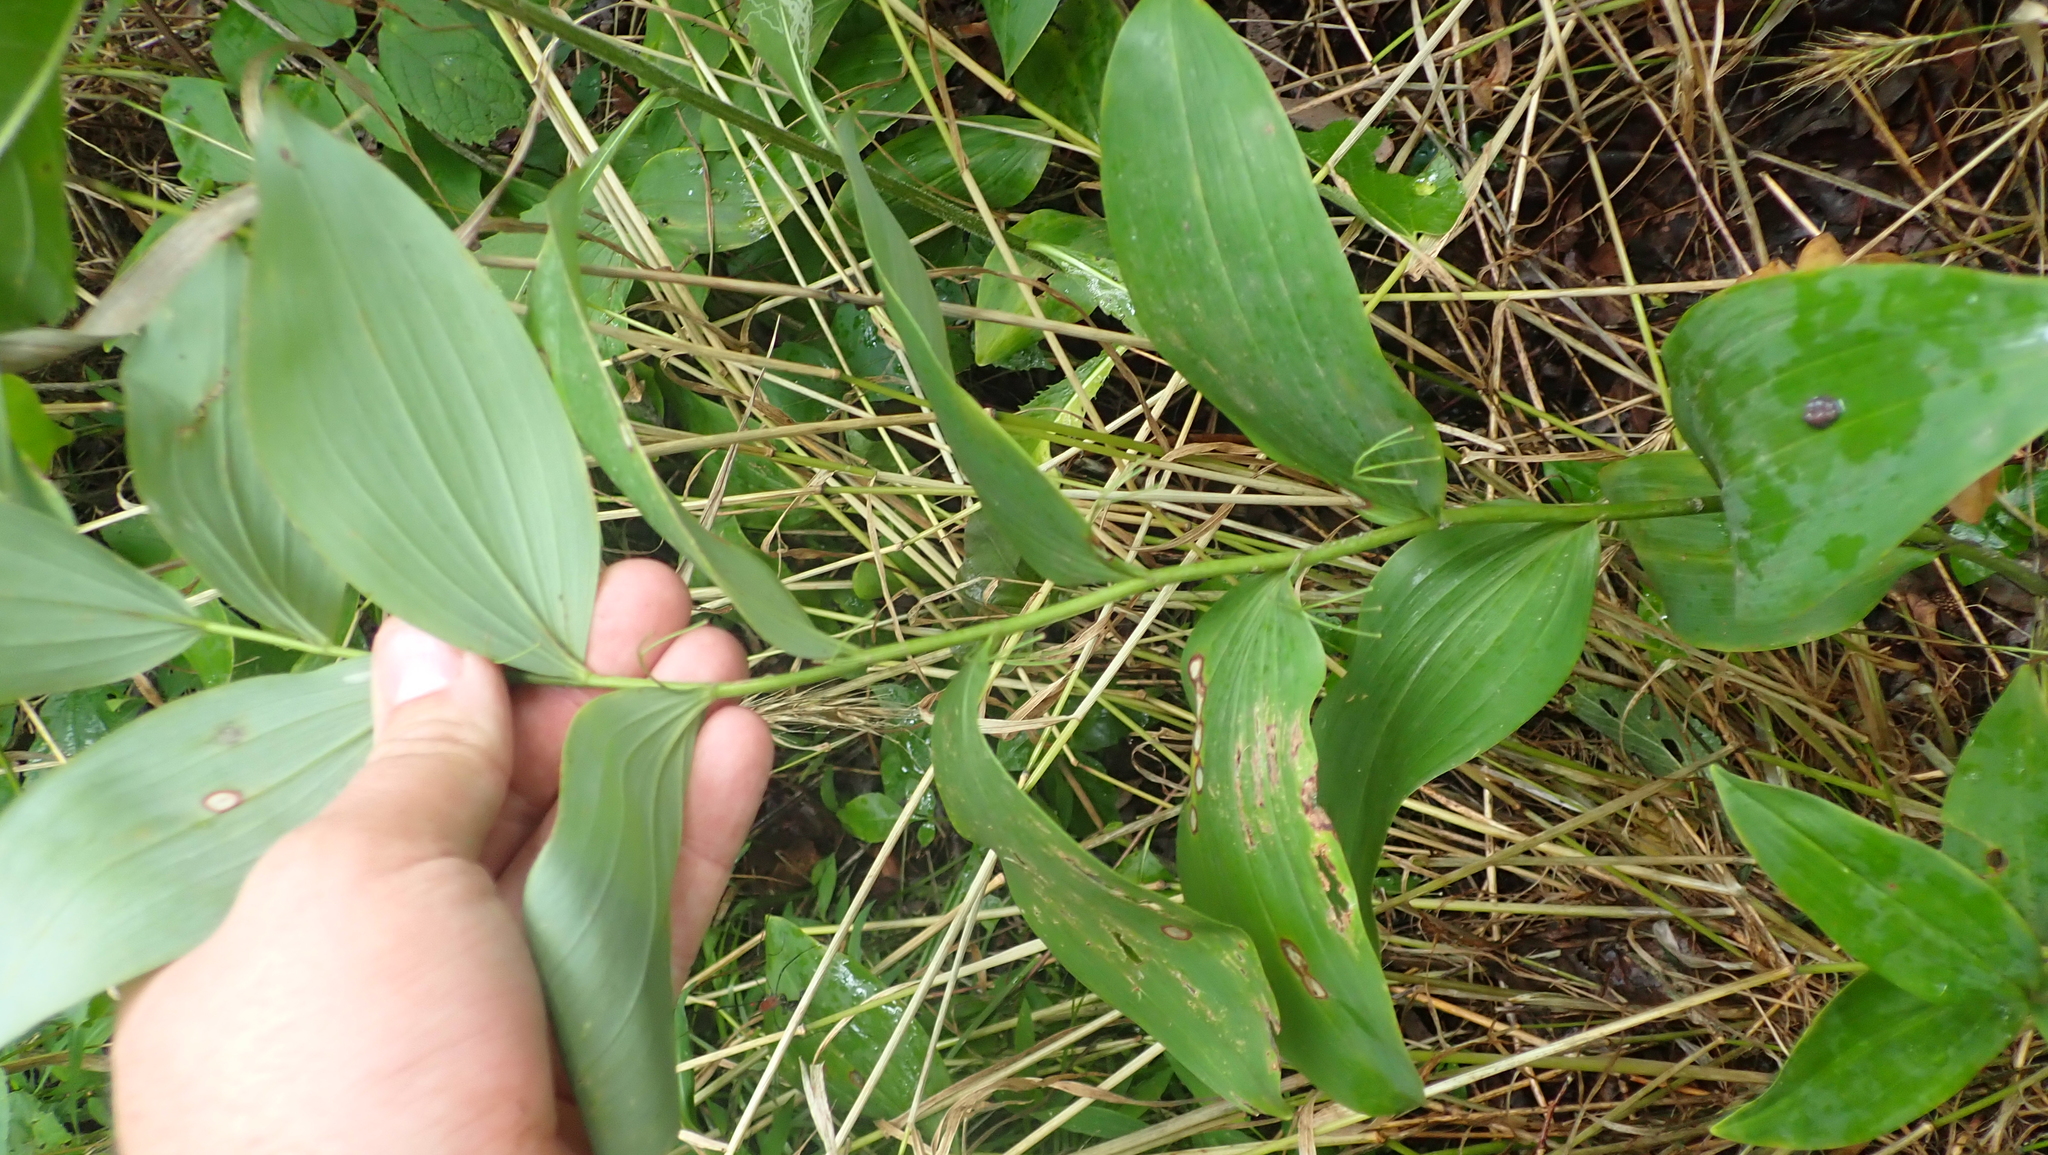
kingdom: Plantae
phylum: Tracheophyta
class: Liliopsida
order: Asparagales
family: Asparagaceae
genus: Polygonatum
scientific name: Polygonatum biflorum
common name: American solomon's-seal
